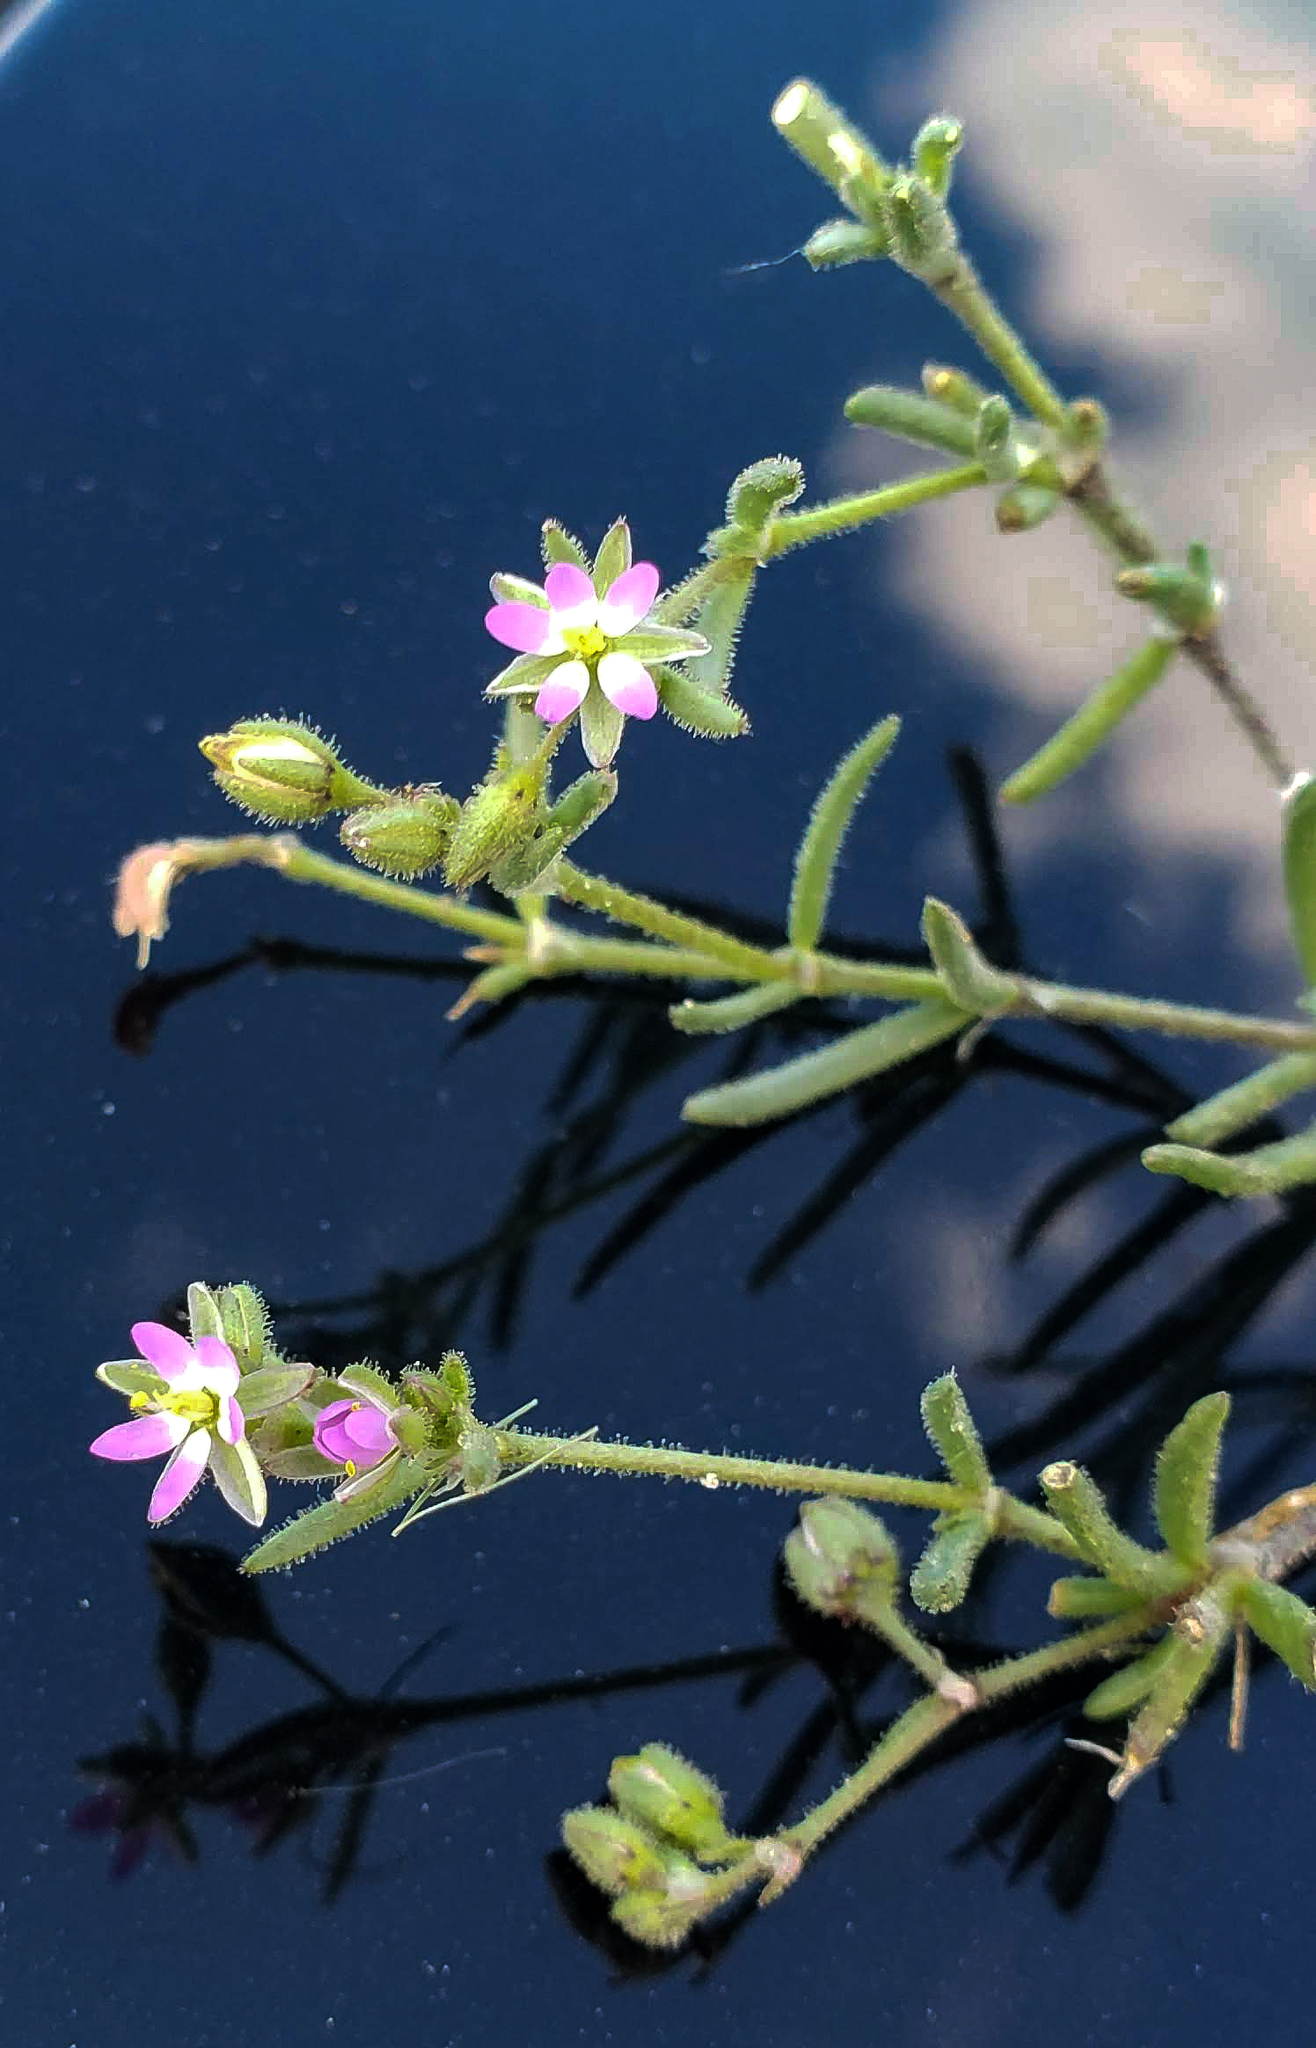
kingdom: Plantae
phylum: Tracheophyta
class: Magnoliopsida
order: Caryophyllales
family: Caryophyllaceae
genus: Spergularia
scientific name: Spergularia marina
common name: Lesser sea-spurrey
